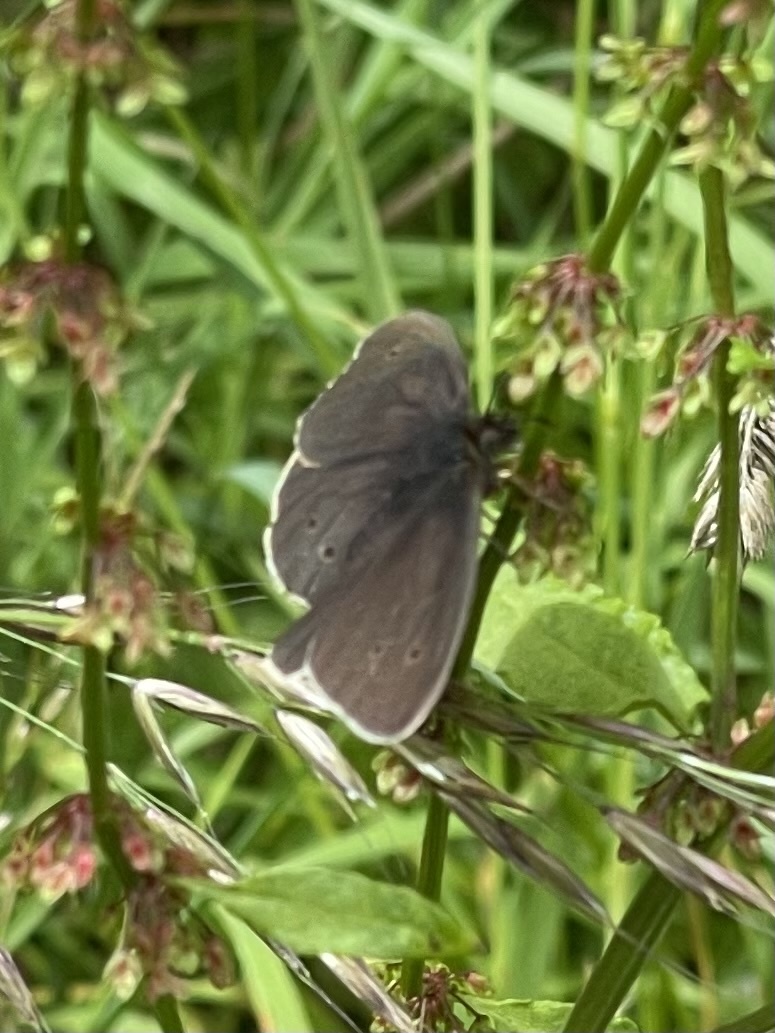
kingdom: Animalia
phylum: Arthropoda
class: Insecta
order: Lepidoptera
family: Nymphalidae
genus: Aphantopus
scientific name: Aphantopus hyperantus
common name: Ringlet
